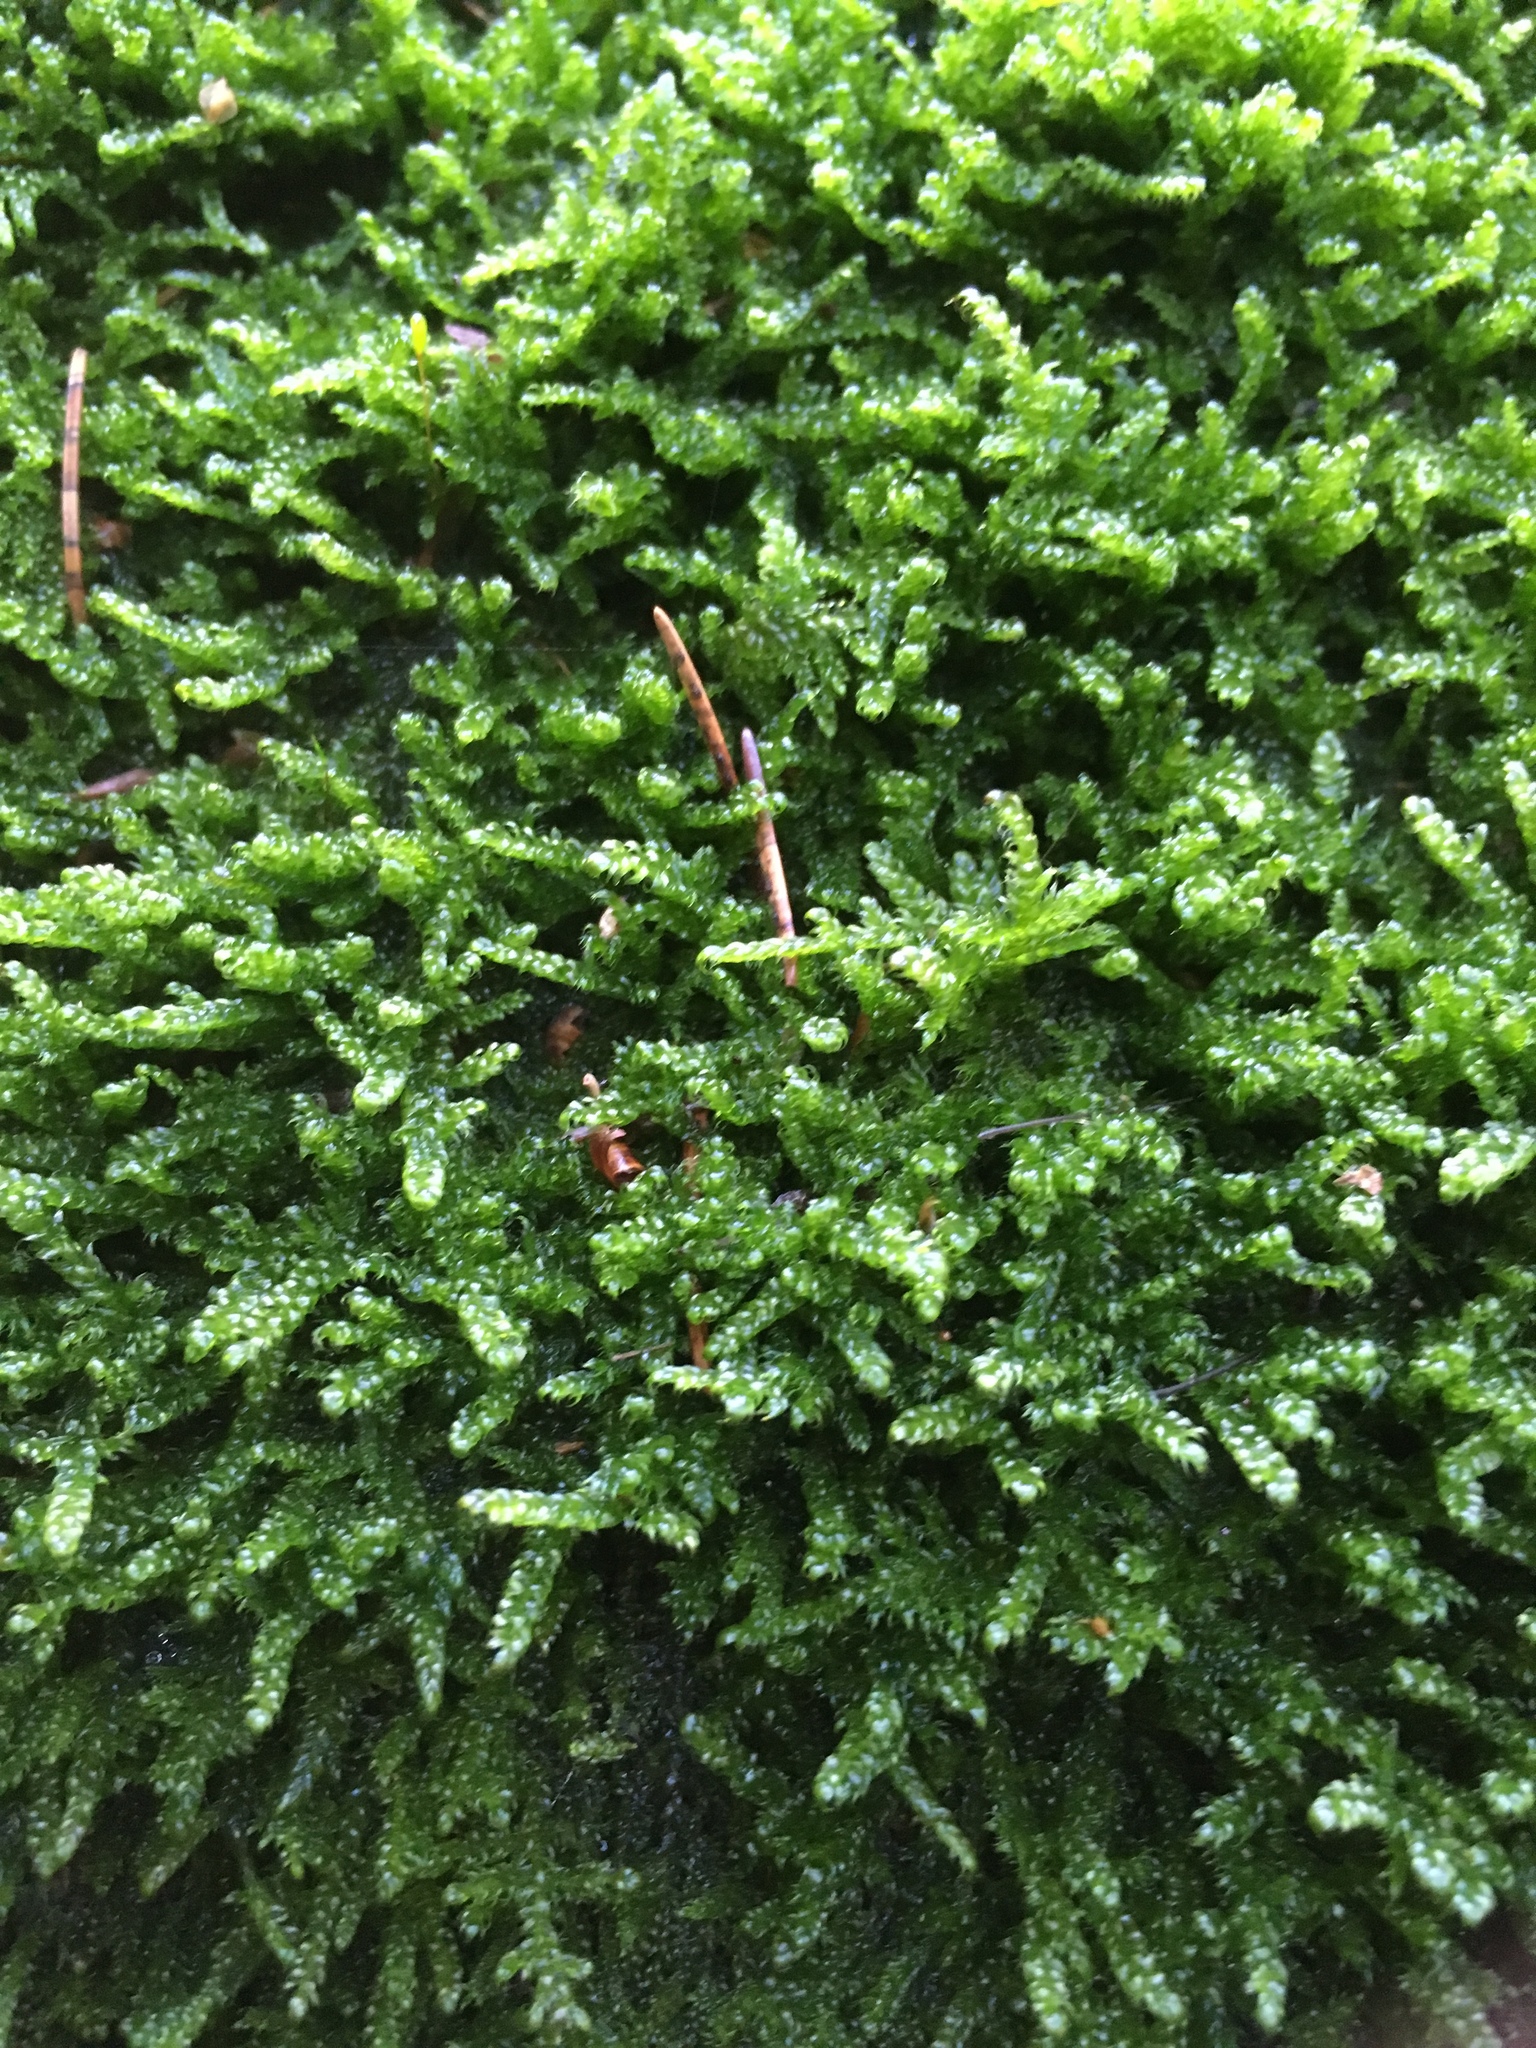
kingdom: Plantae
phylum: Bryophyta
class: Bryopsida
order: Hypnales
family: Hypnaceae
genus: Hypnum
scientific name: Hypnum cupressiforme
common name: Cypress-leaved plait-moss
